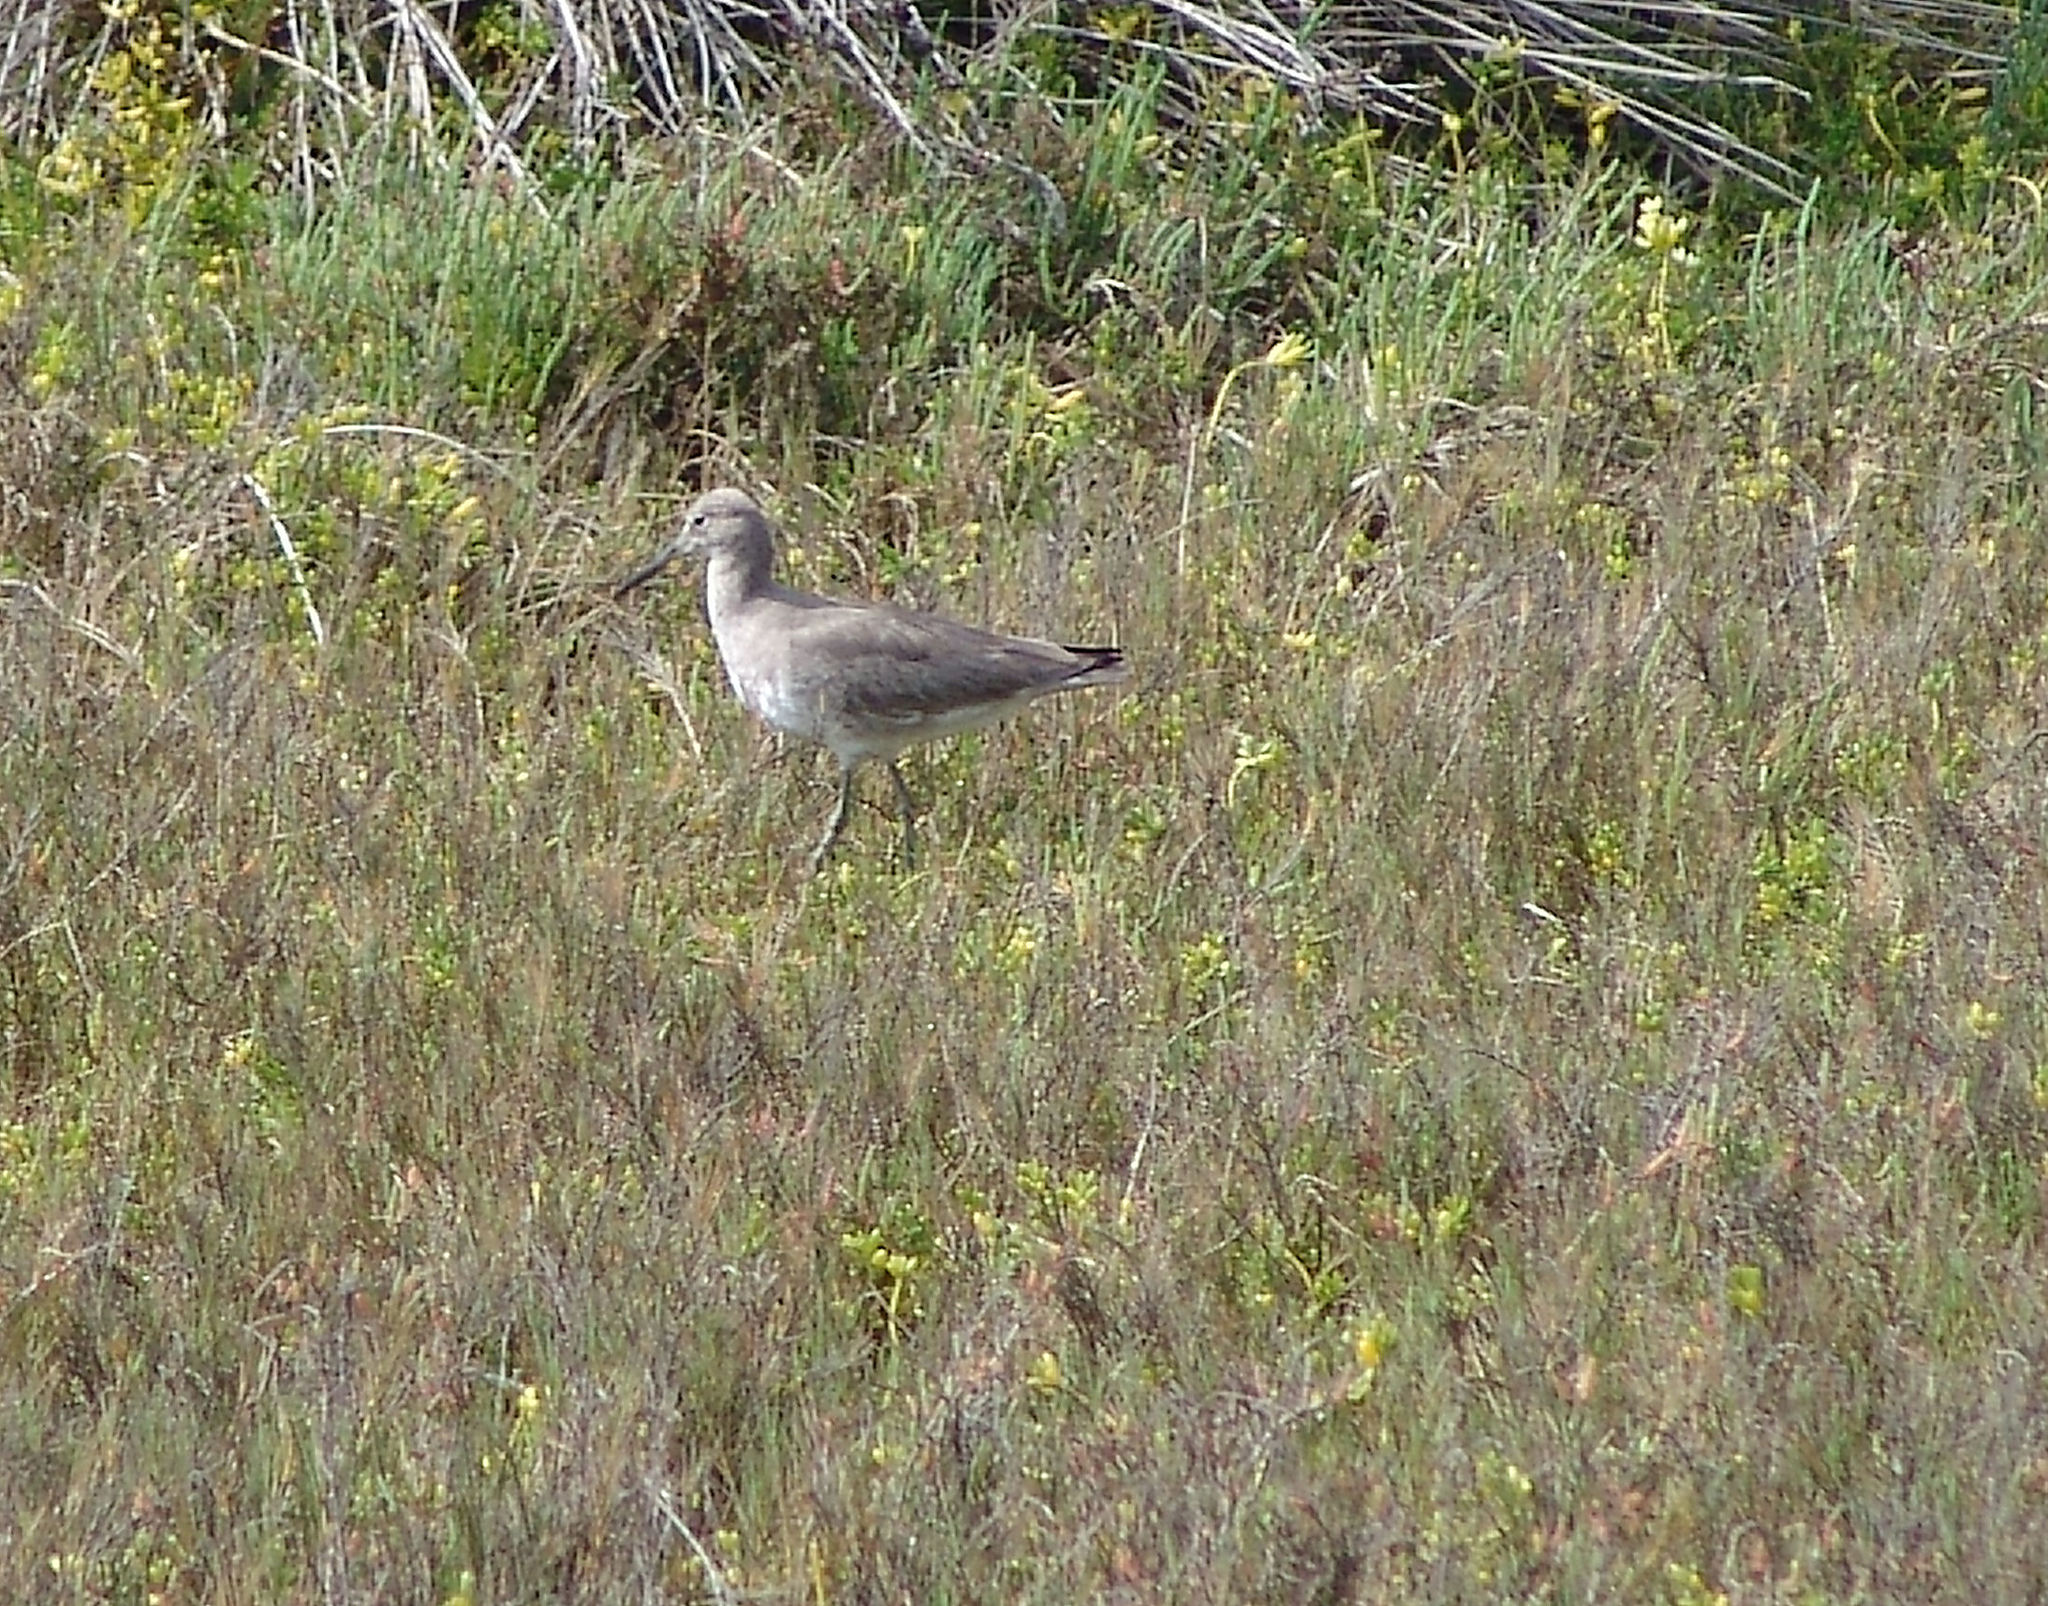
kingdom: Animalia
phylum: Chordata
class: Aves
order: Charadriiformes
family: Scolopacidae
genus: Tringa
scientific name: Tringa semipalmata
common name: Willet
